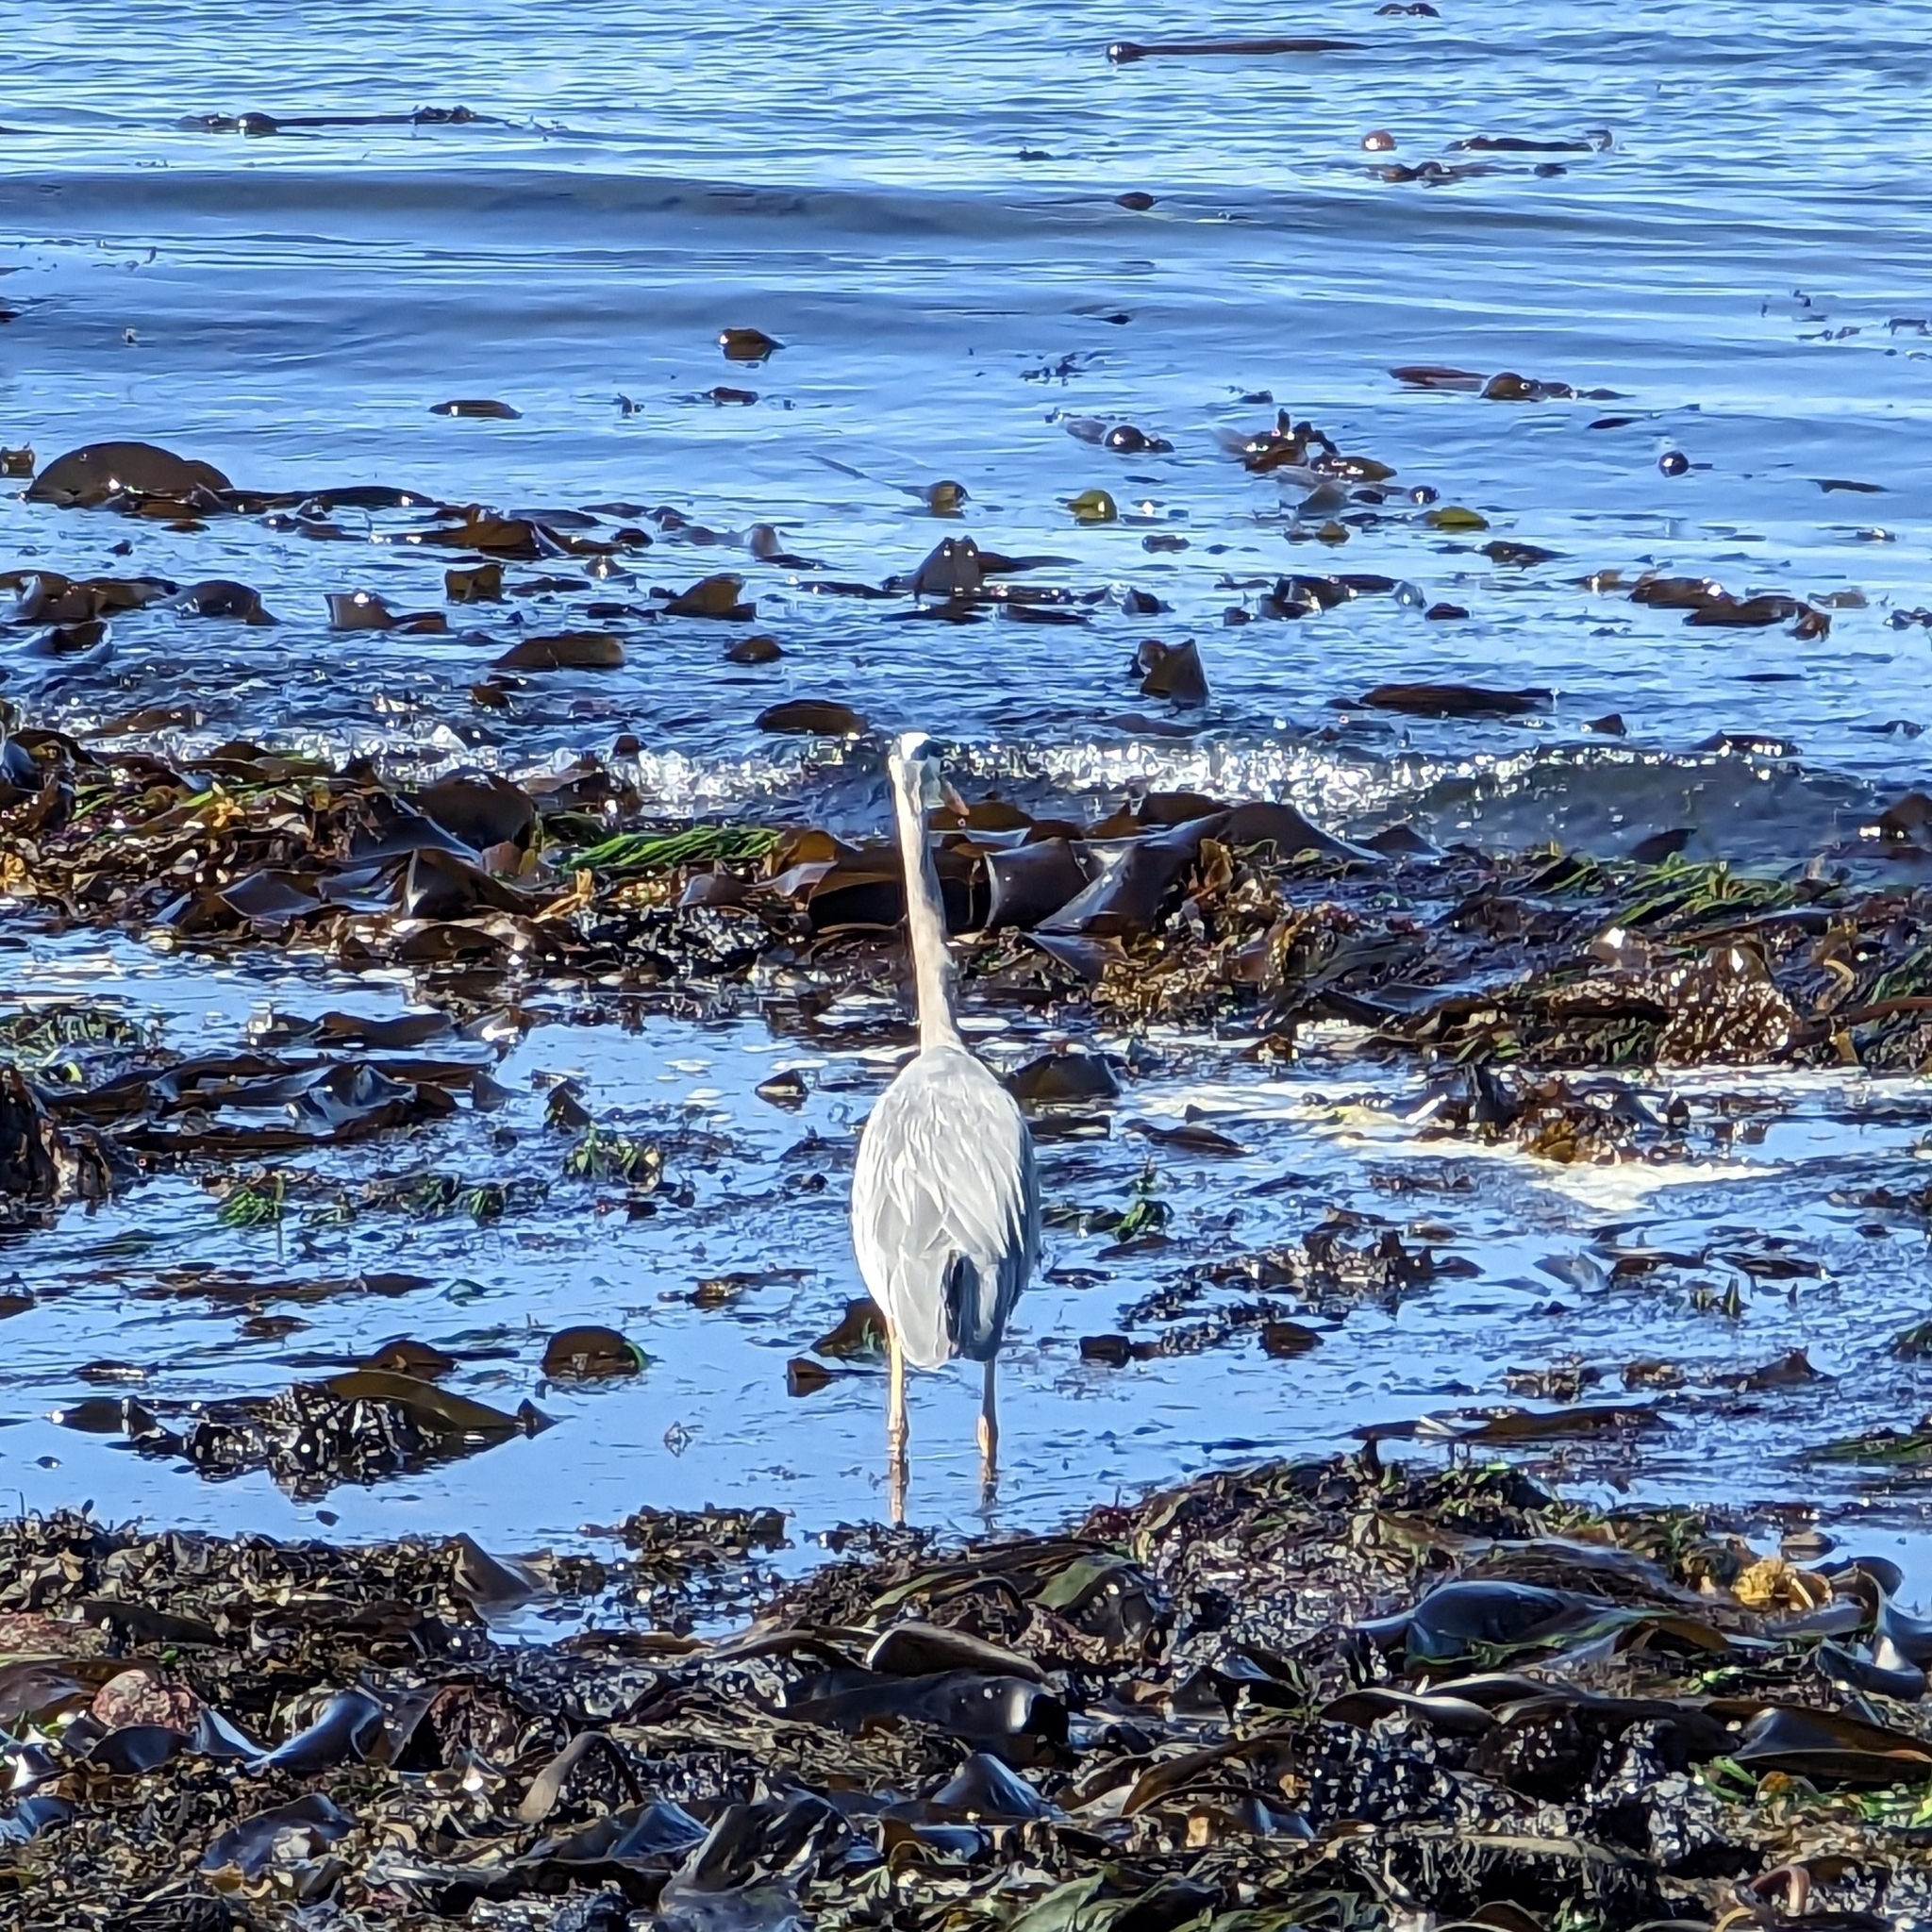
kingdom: Animalia
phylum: Chordata
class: Aves
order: Pelecaniformes
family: Ardeidae
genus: Ardea
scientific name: Ardea herodias
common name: Great blue heron
